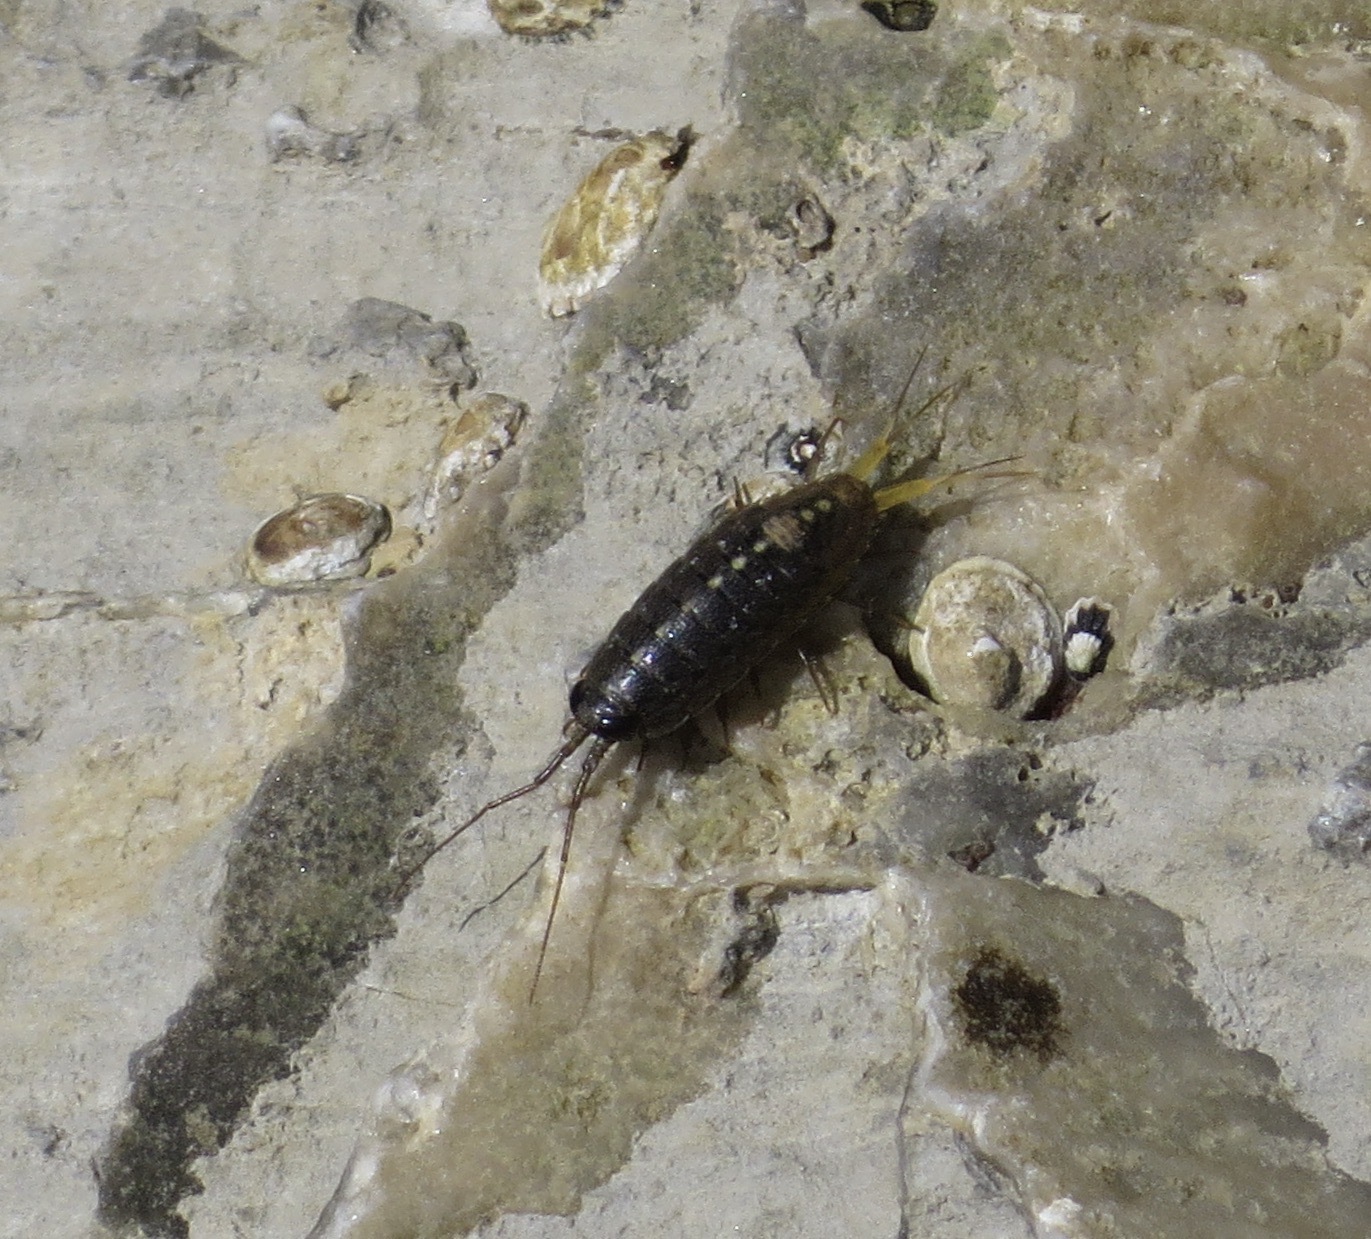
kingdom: Animalia
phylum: Arthropoda
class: Malacostraca
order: Isopoda
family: Ligiidae
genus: Ligia
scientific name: Ligia occidentalis
